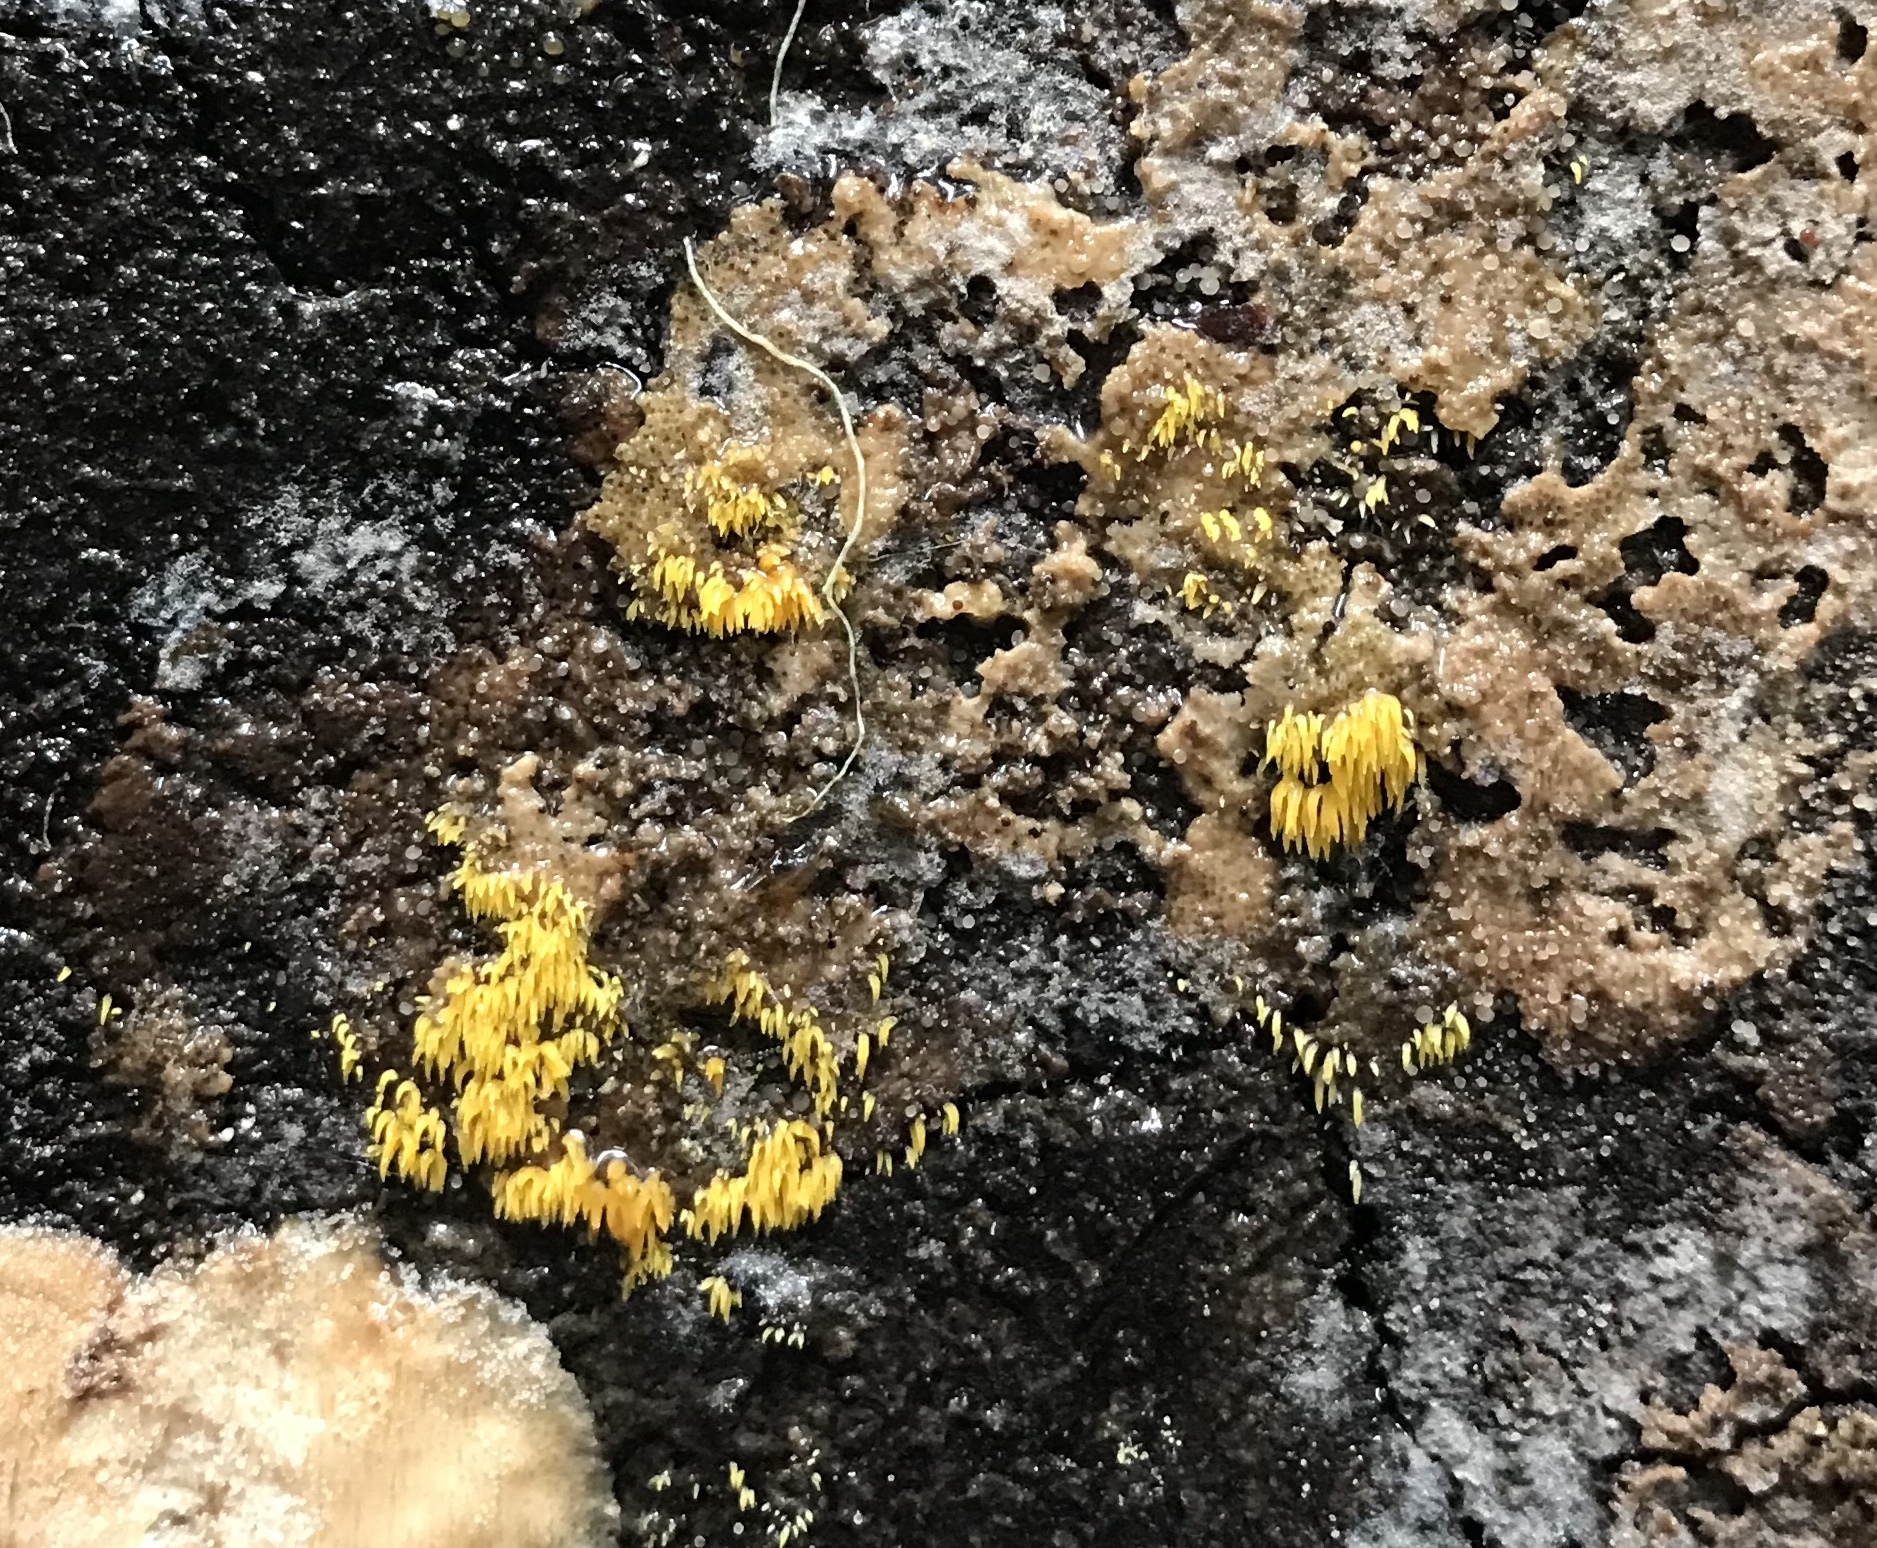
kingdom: Fungi
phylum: Basidiomycota
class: Agaricomycetes
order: Agaricales
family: Clavariaceae
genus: Mucronella
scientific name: Mucronella flava
